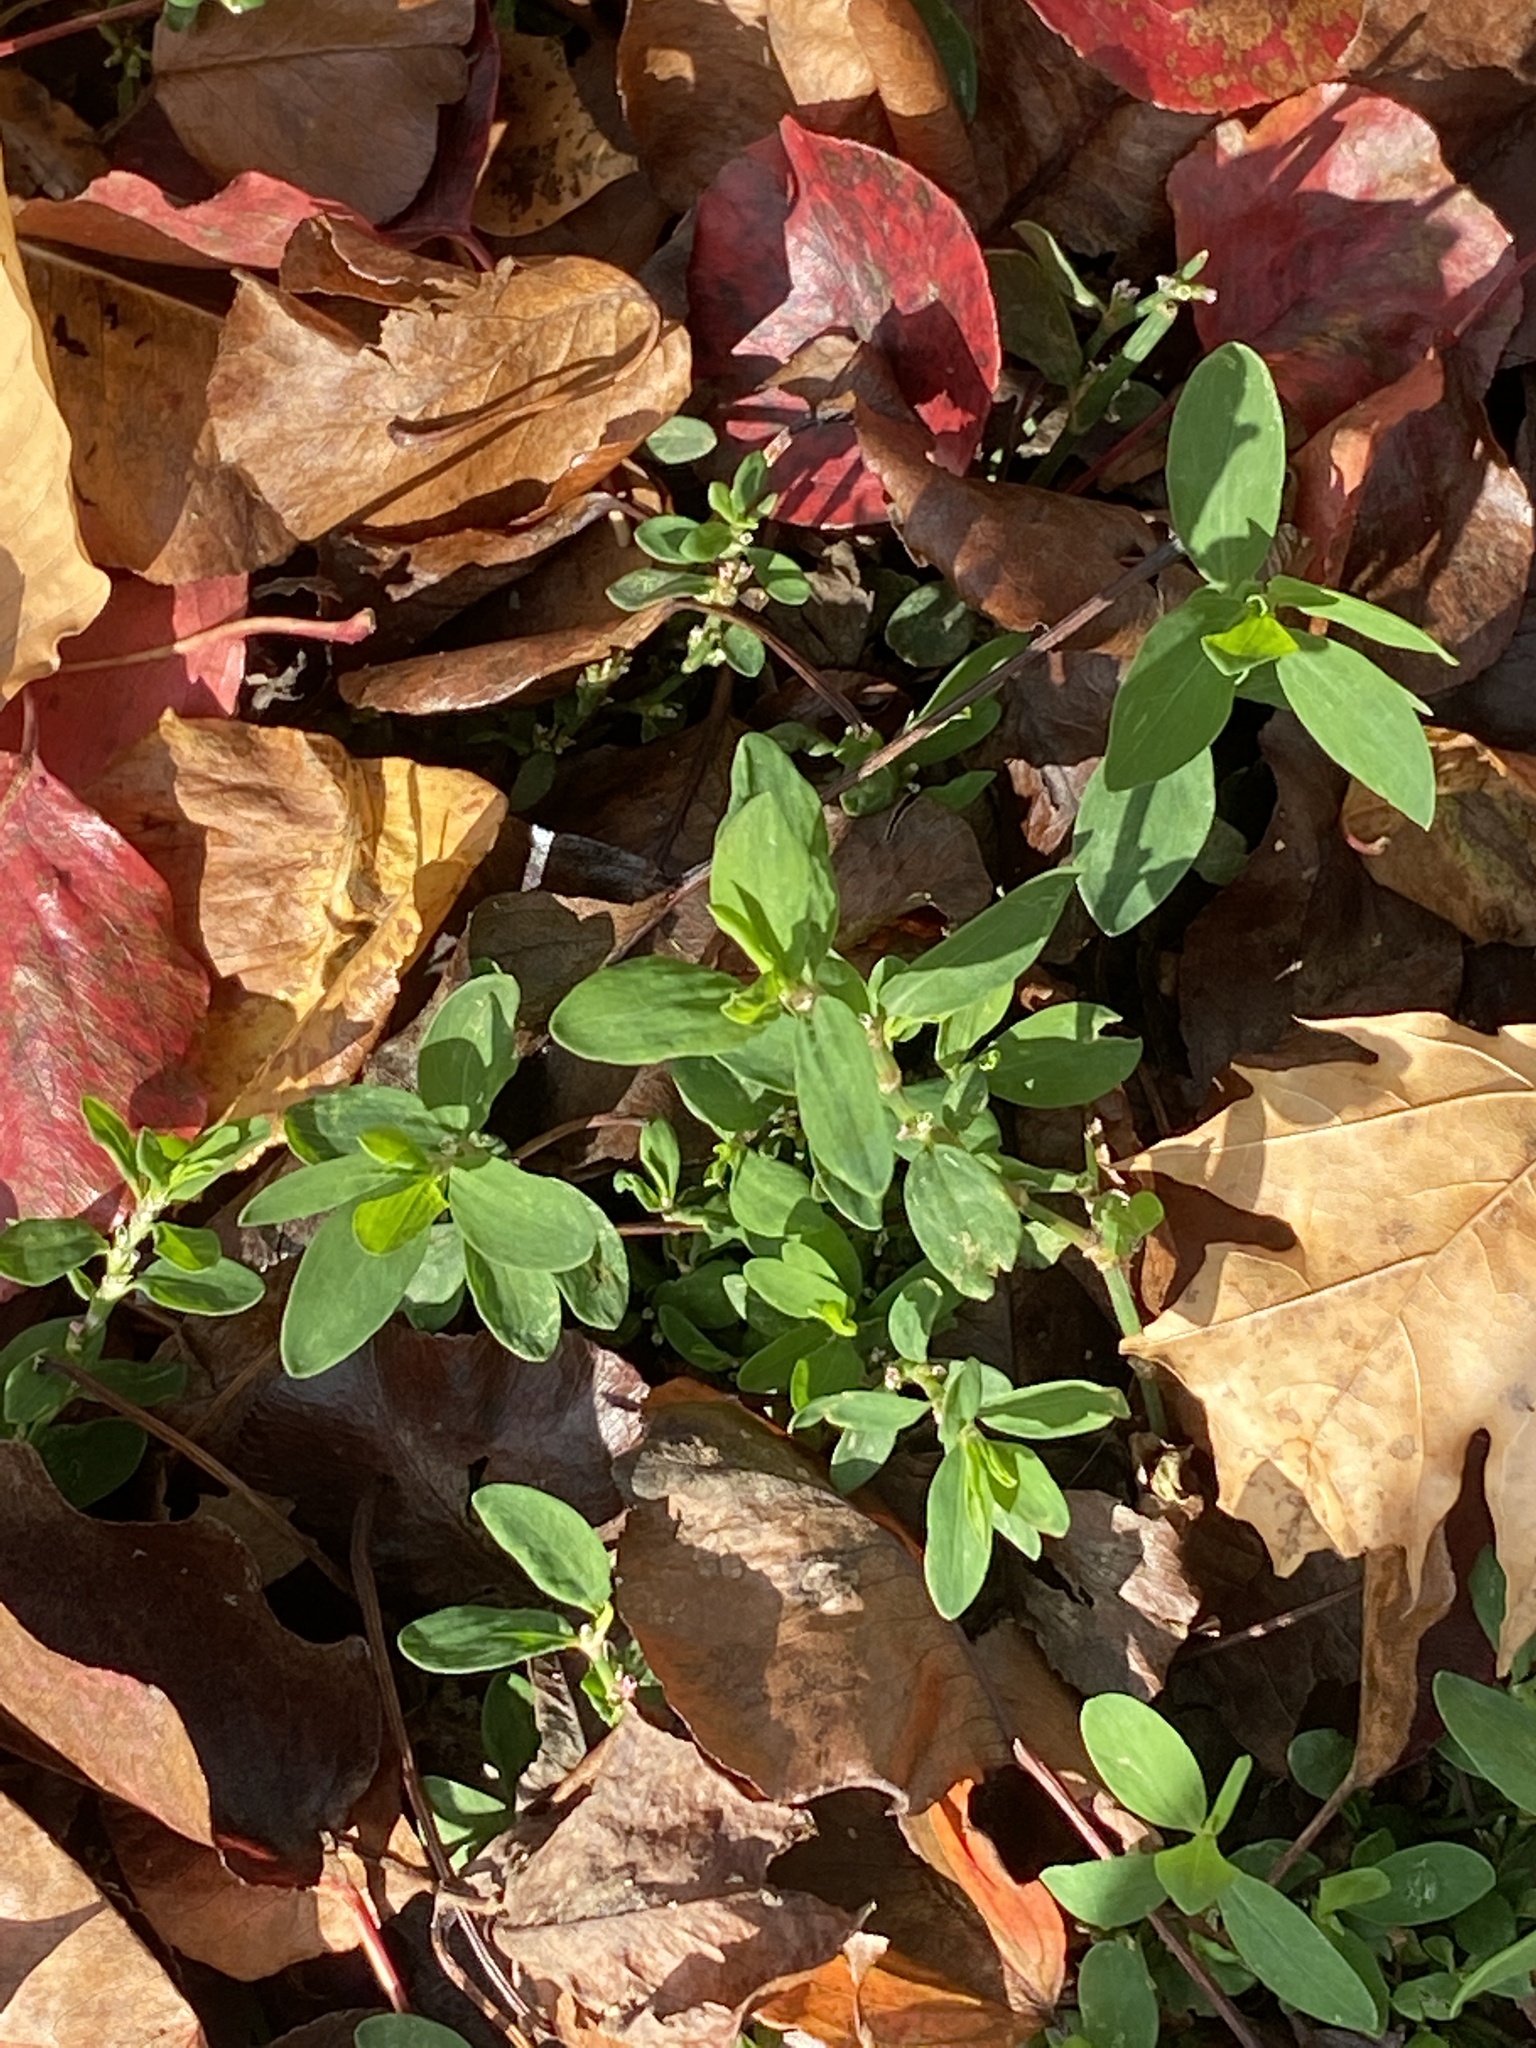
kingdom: Plantae
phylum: Tracheophyta
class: Magnoliopsida
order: Caryophyllales
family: Polygonaceae
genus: Polygonum
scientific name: Polygonum aviculare
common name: Prostrate knotweed
